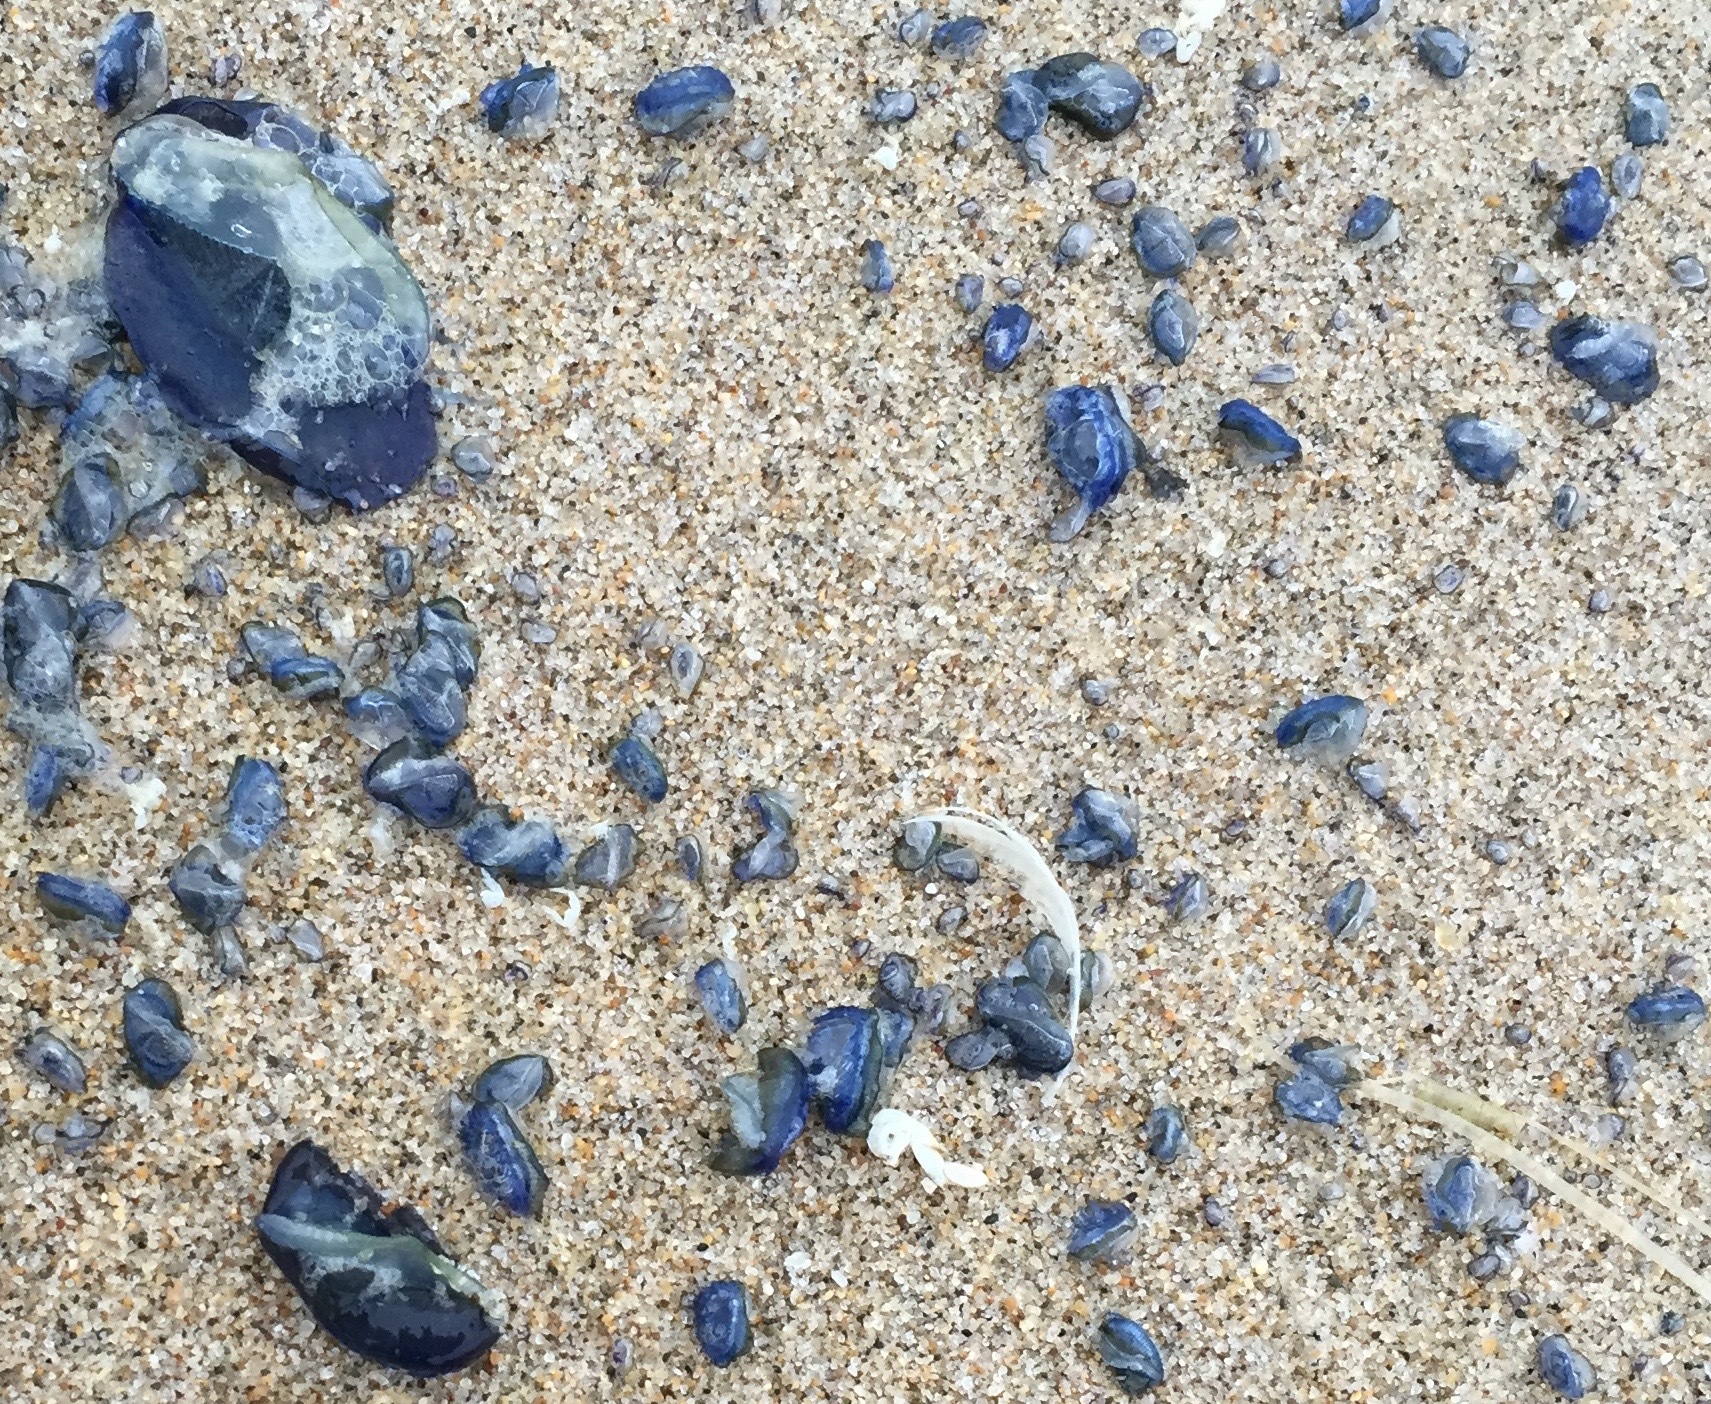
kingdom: Animalia
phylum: Cnidaria
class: Hydrozoa
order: Anthoathecata
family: Porpitidae
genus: Velella
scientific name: Velella velella
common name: By-the-wind-sailor
